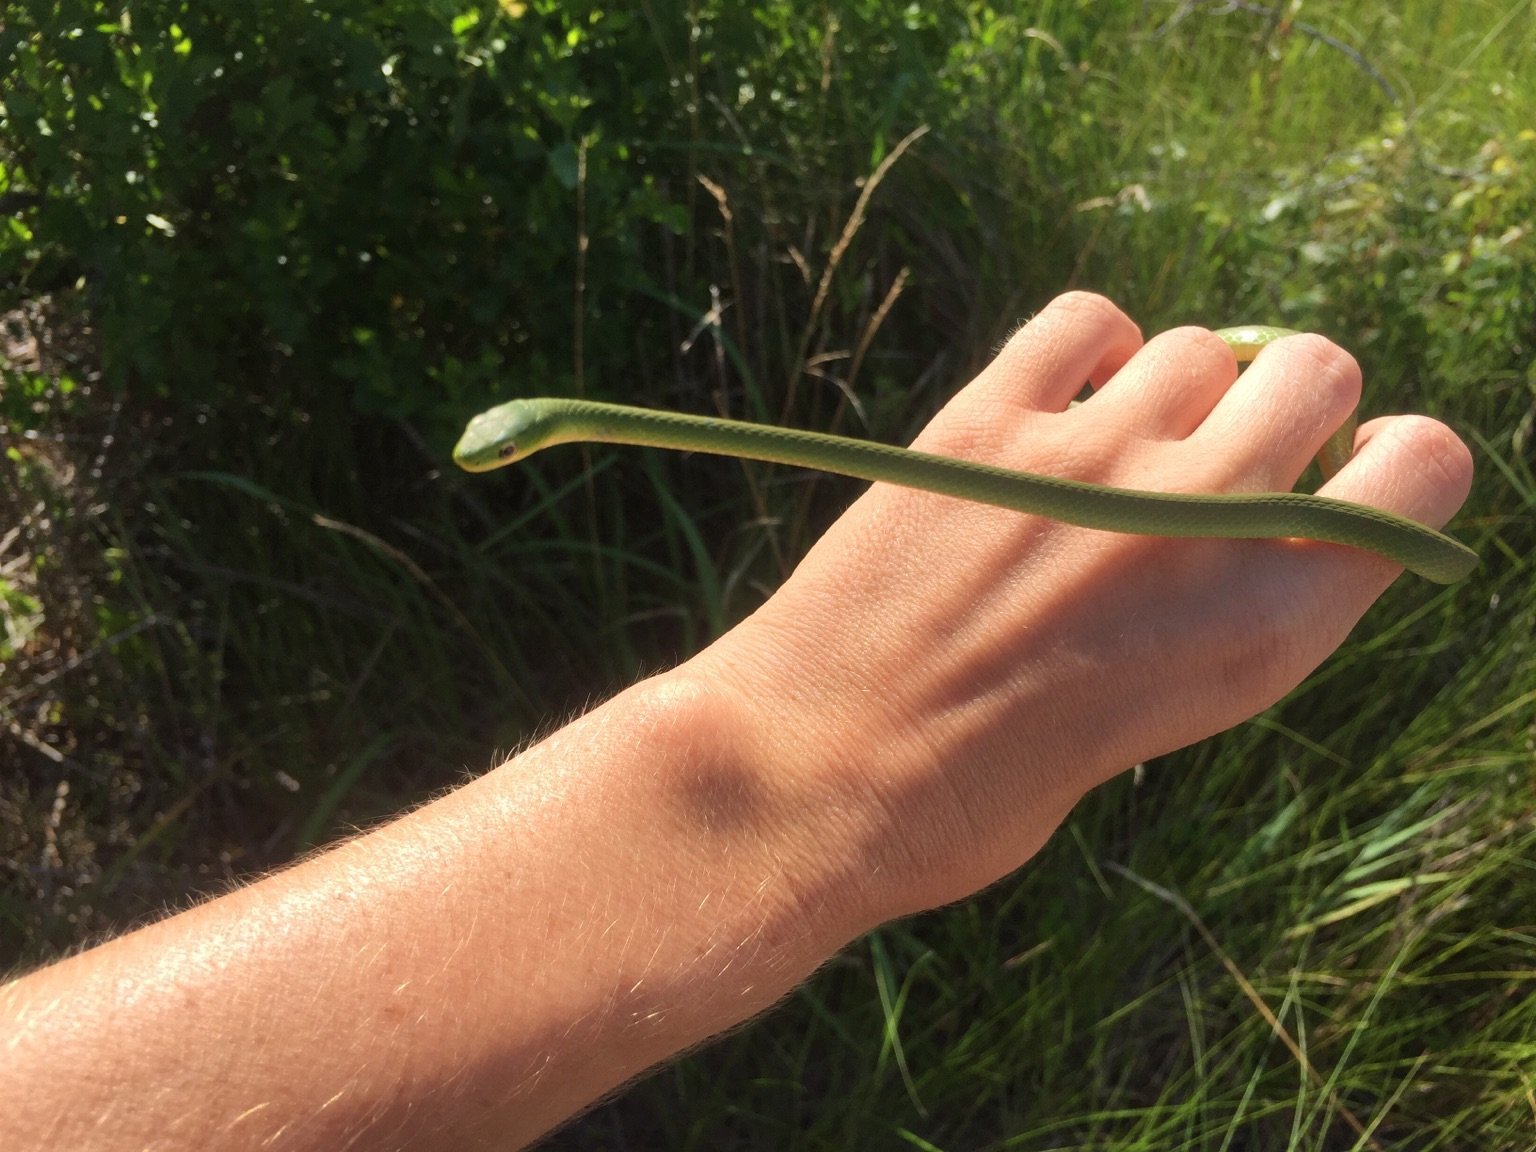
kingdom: Animalia
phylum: Chordata
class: Squamata
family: Colubridae
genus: Opheodrys
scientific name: Opheodrys aestivus
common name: Rough greensnake
